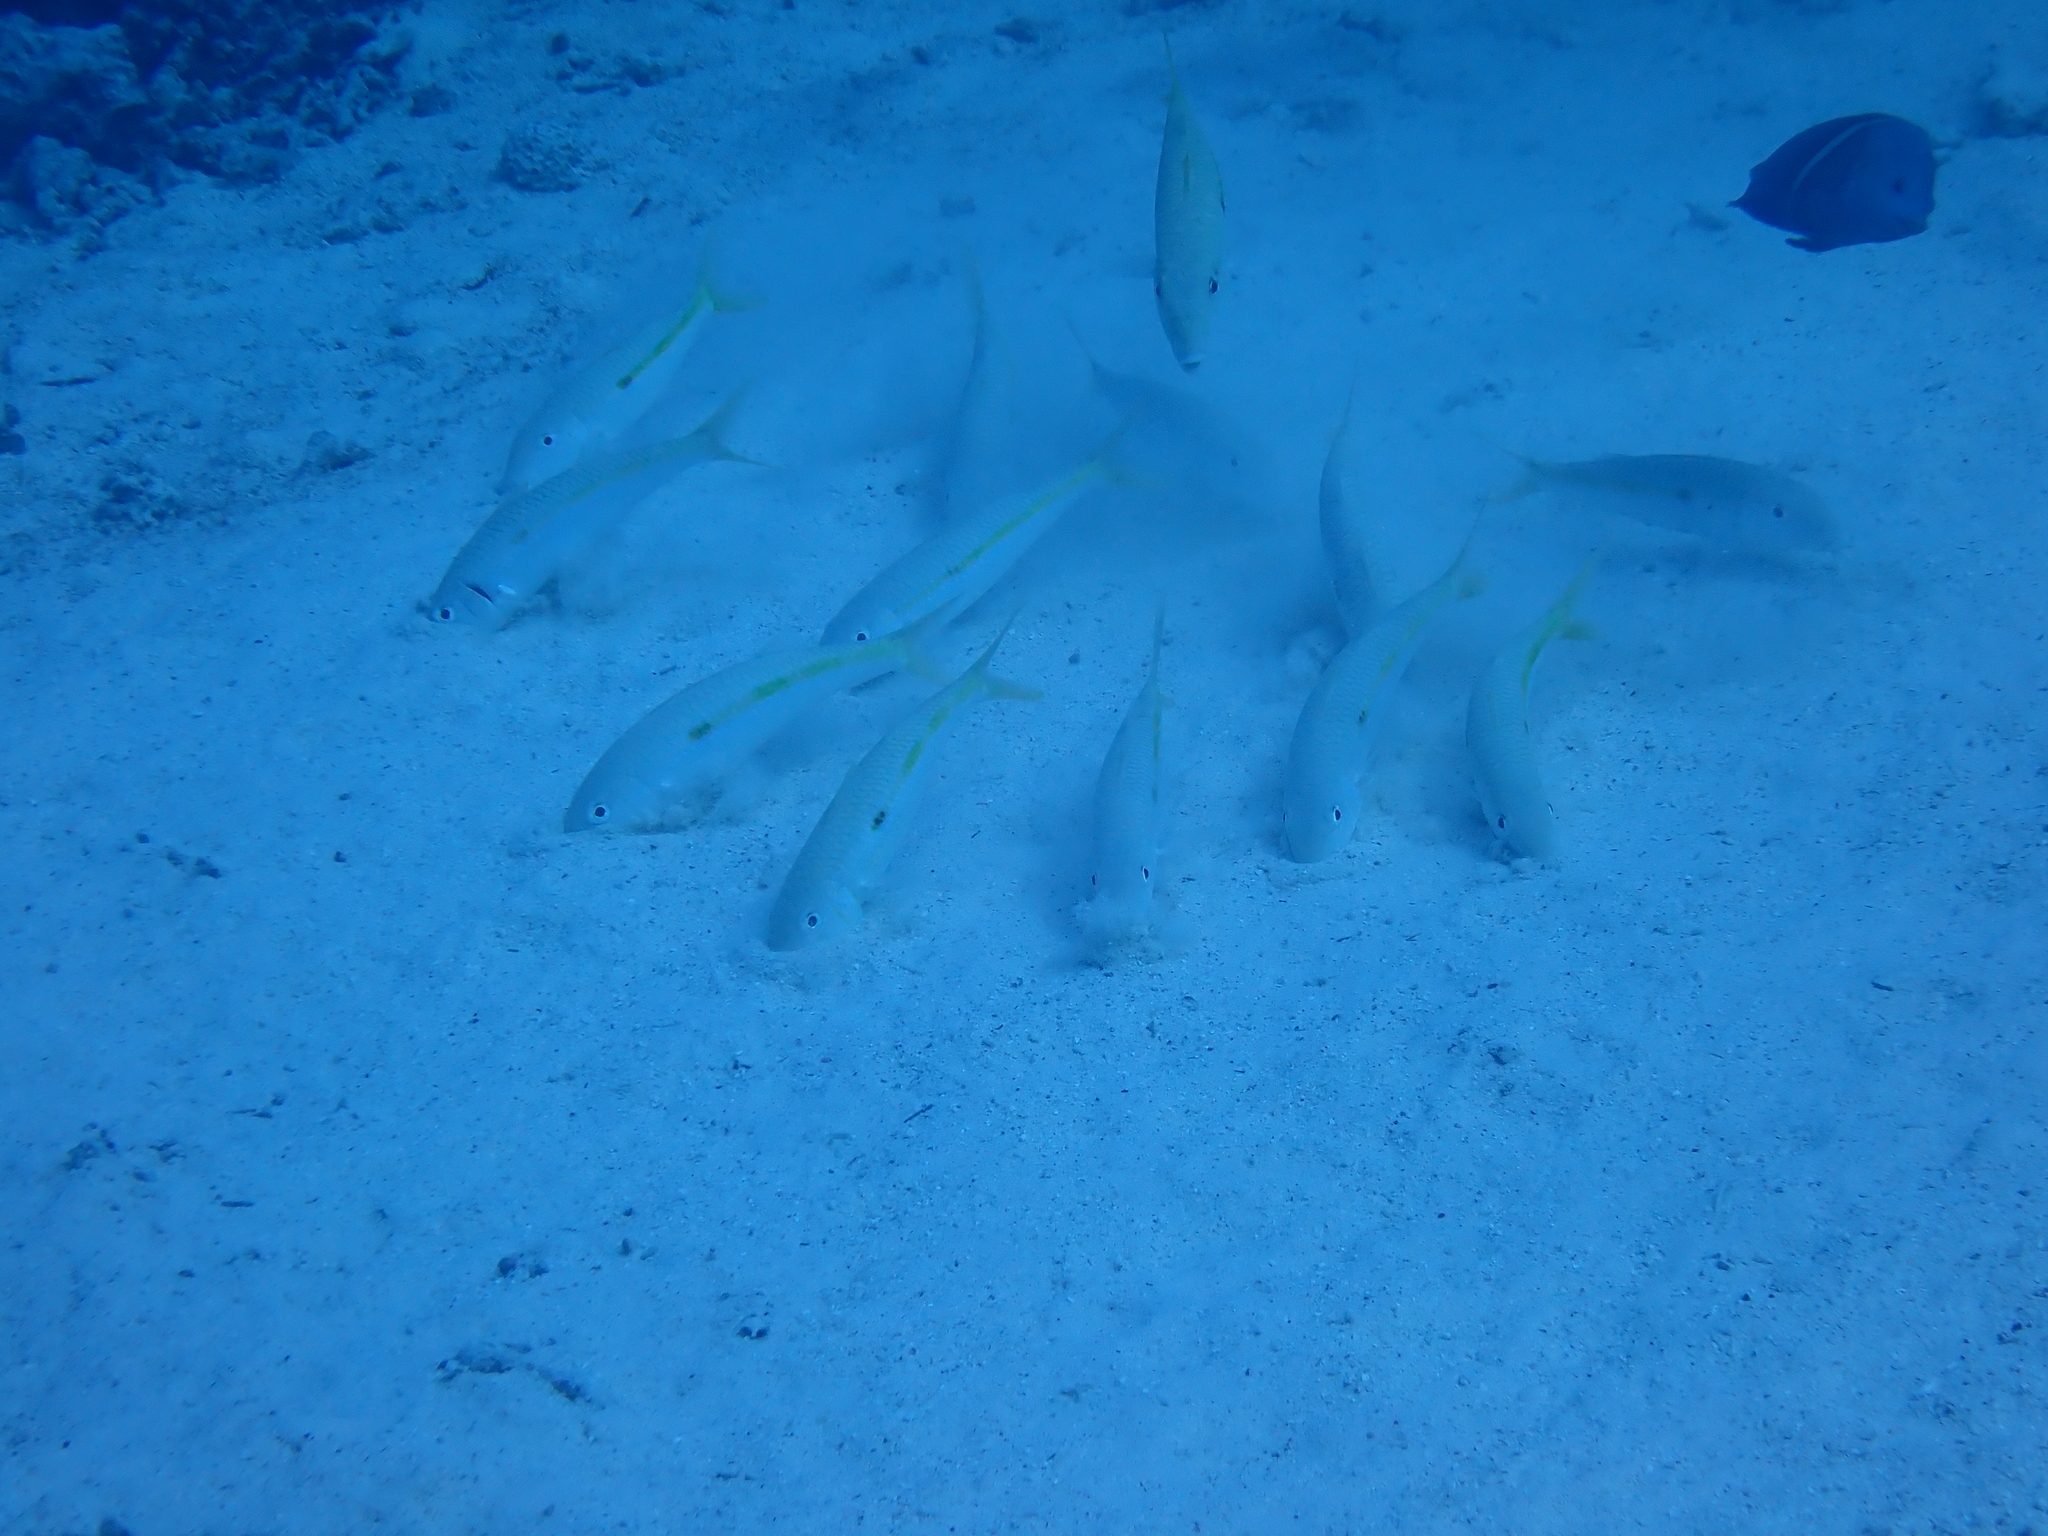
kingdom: Animalia
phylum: Chordata
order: Perciformes
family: Mullidae
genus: Mulloidichthys
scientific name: Mulloidichthys flavolineatus
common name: Yellowstripe goatfish
